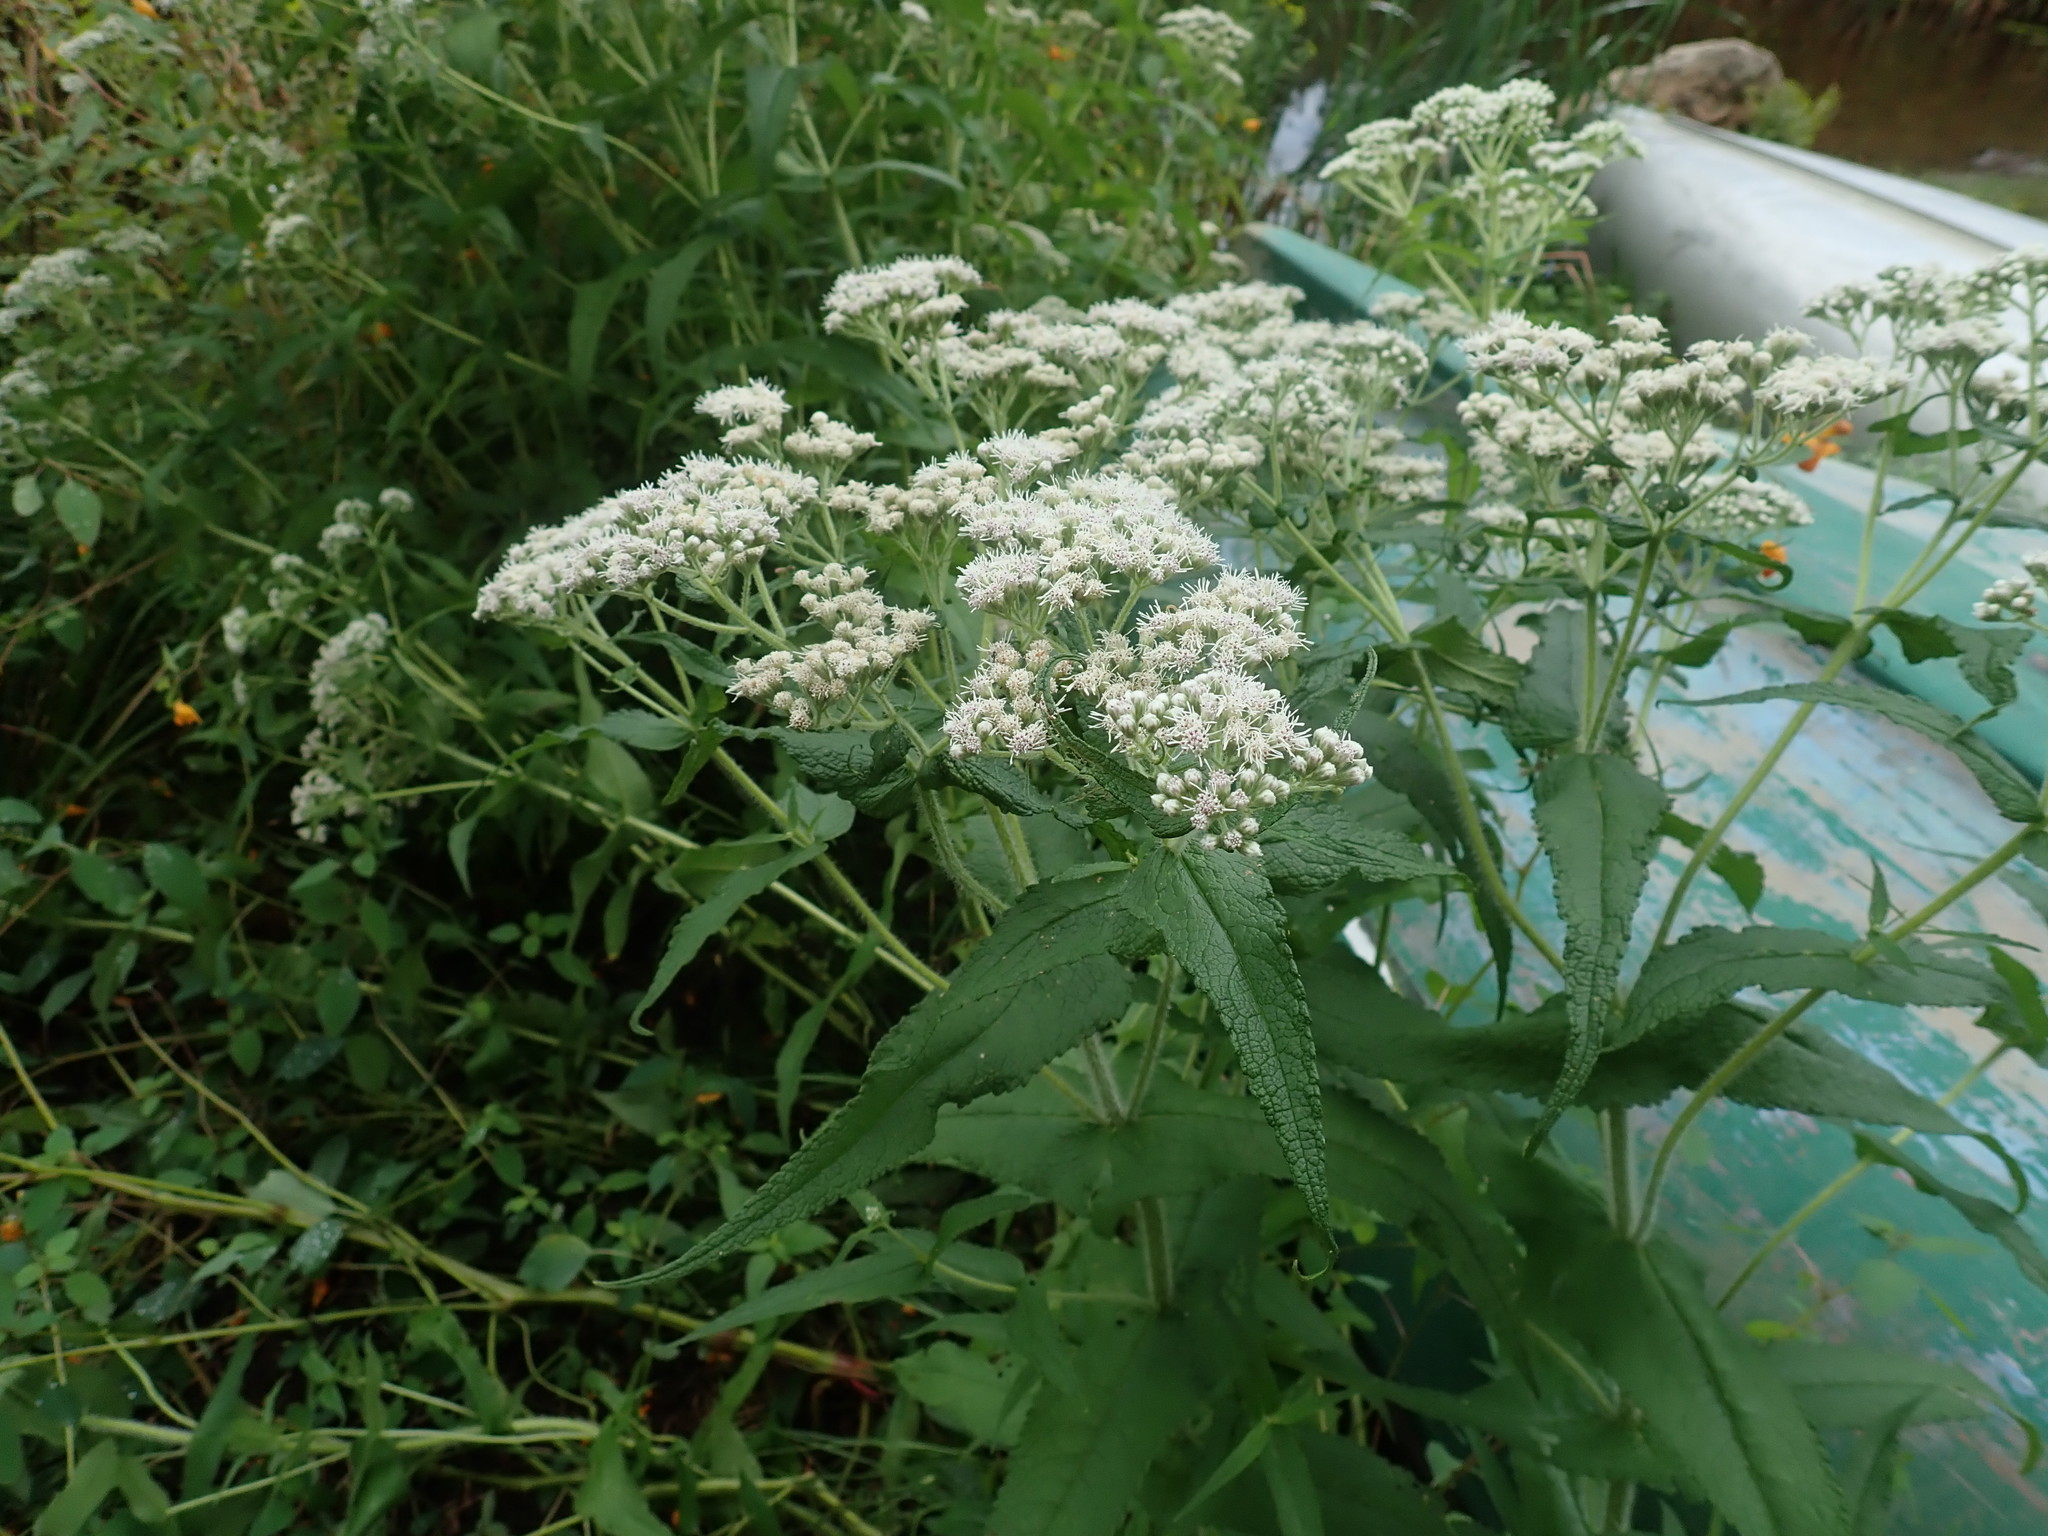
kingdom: Plantae
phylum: Tracheophyta
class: Magnoliopsida
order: Asterales
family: Asteraceae
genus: Eupatorium
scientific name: Eupatorium perfoliatum
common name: Boneset
